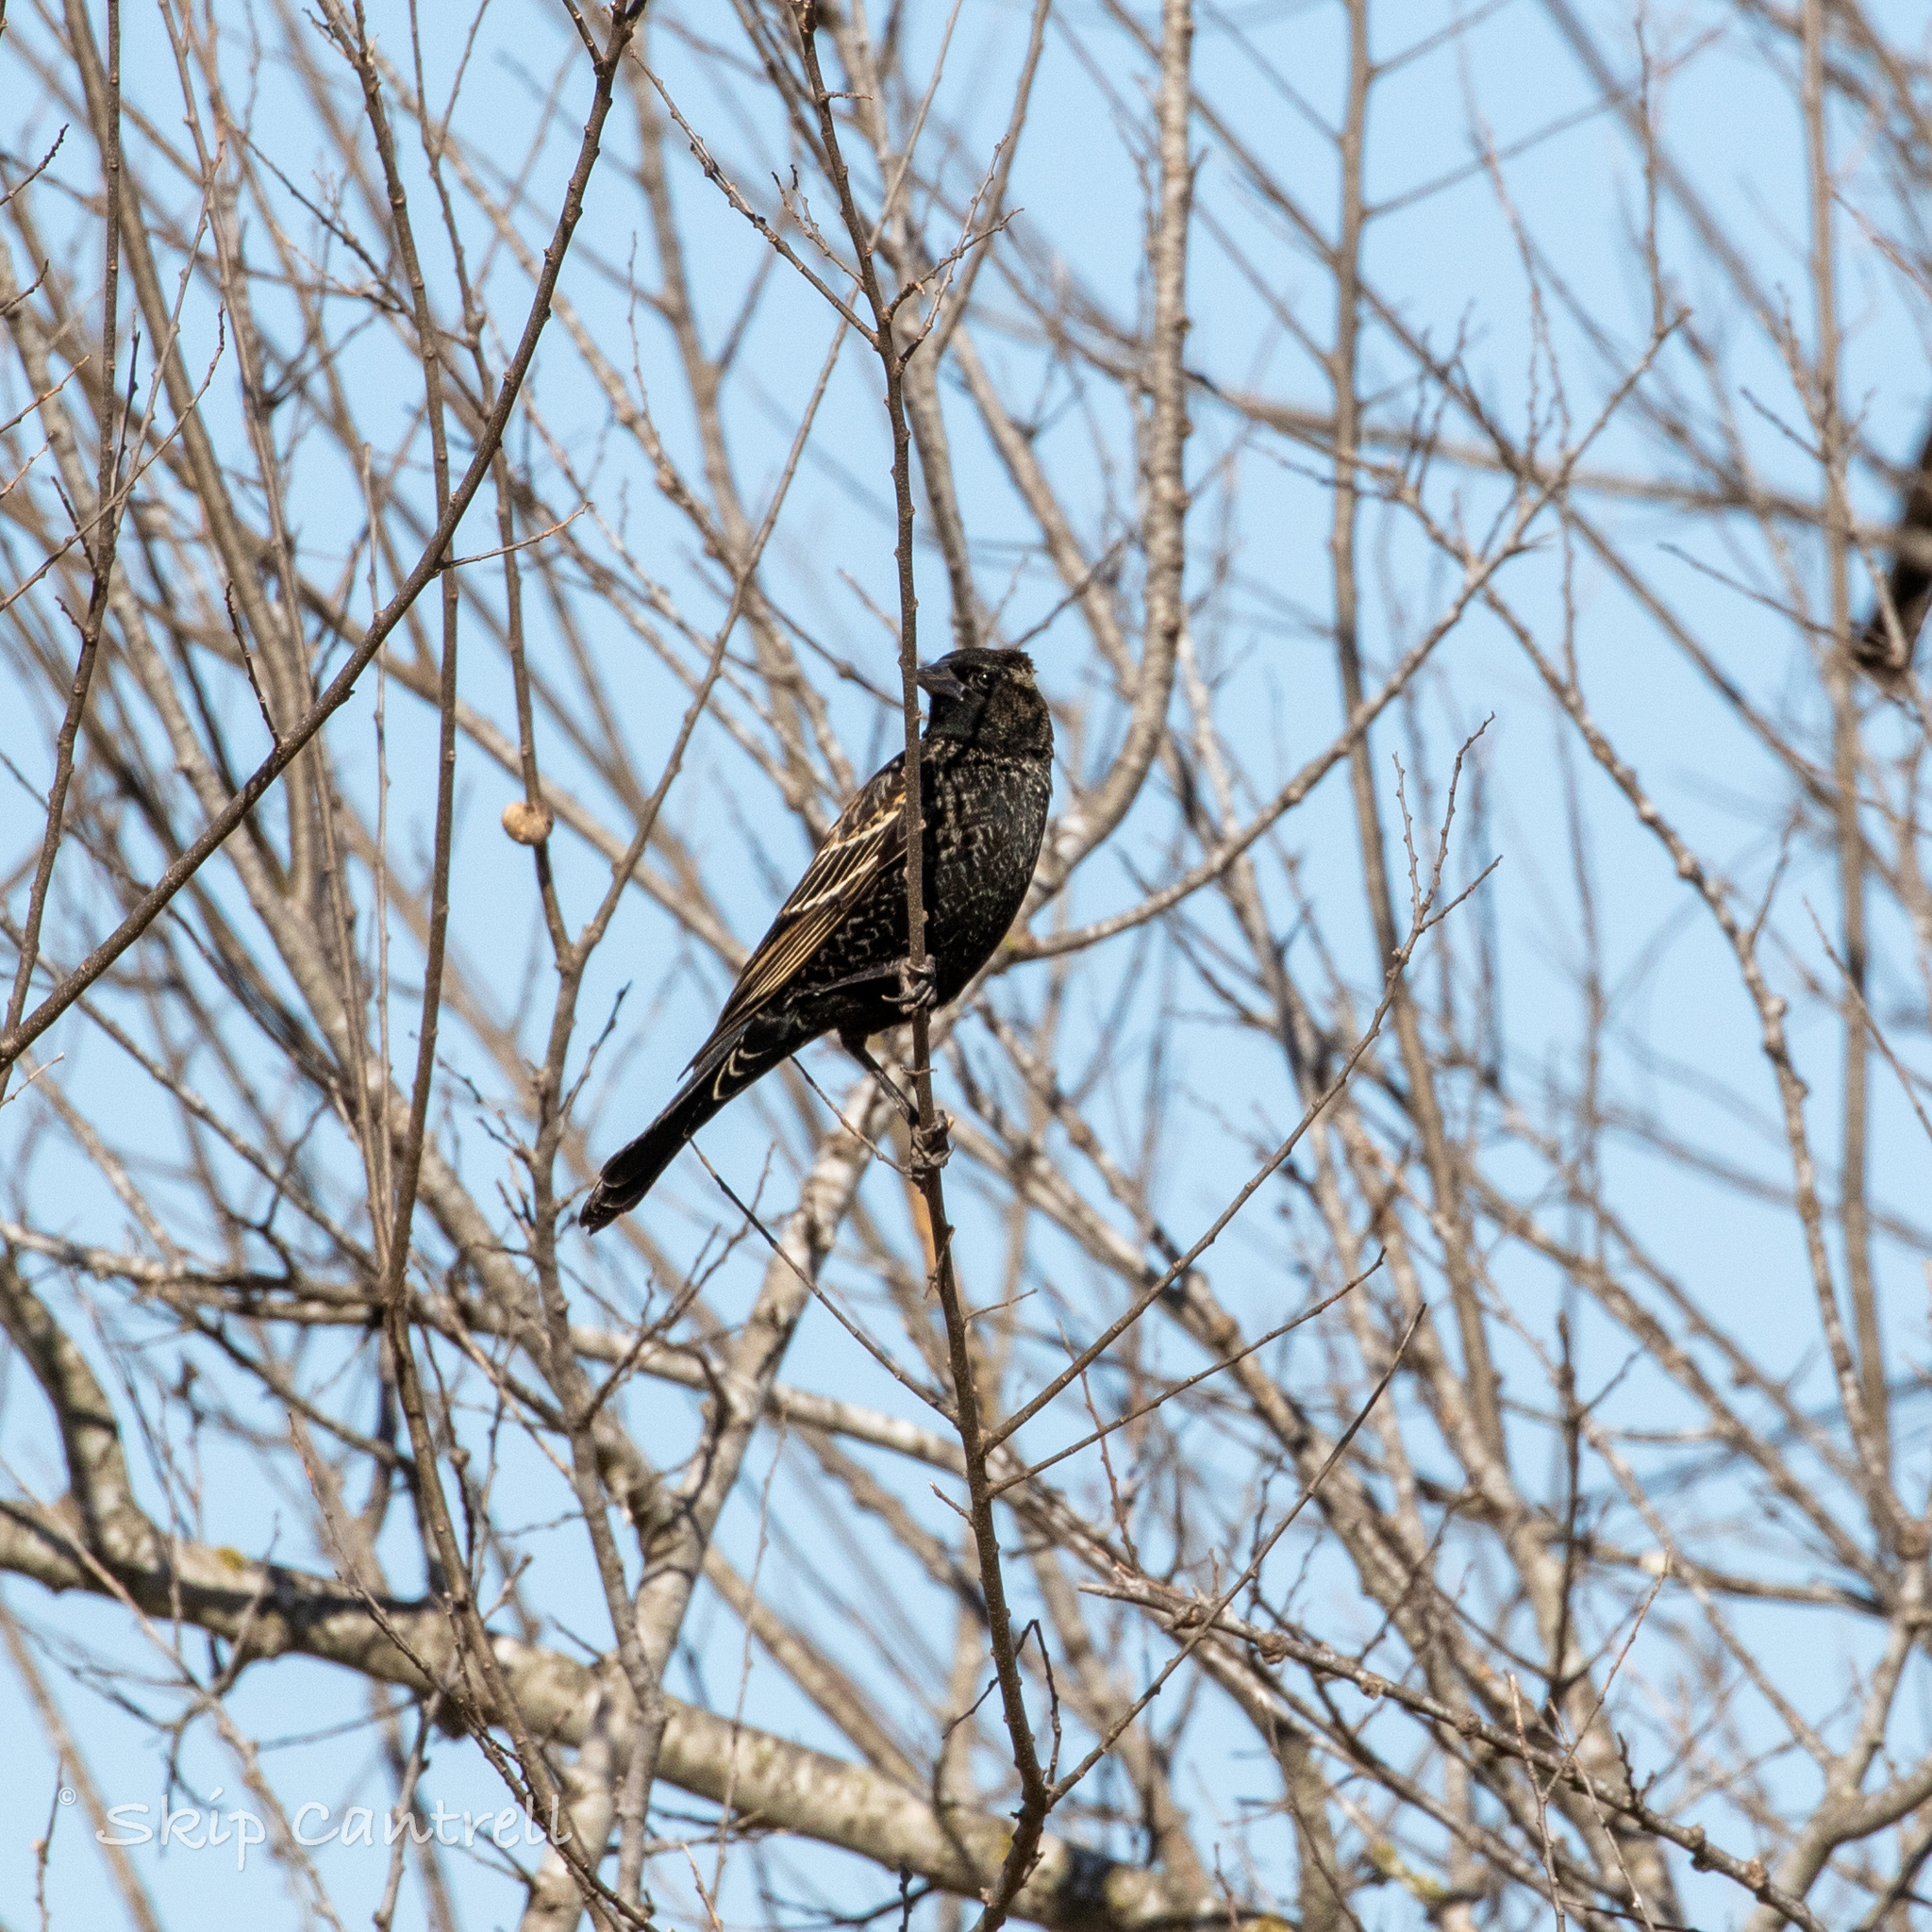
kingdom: Animalia
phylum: Chordata
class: Aves
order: Passeriformes
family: Icteridae
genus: Agelaius
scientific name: Agelaius phoeniceus
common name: Red-winged blackbird
